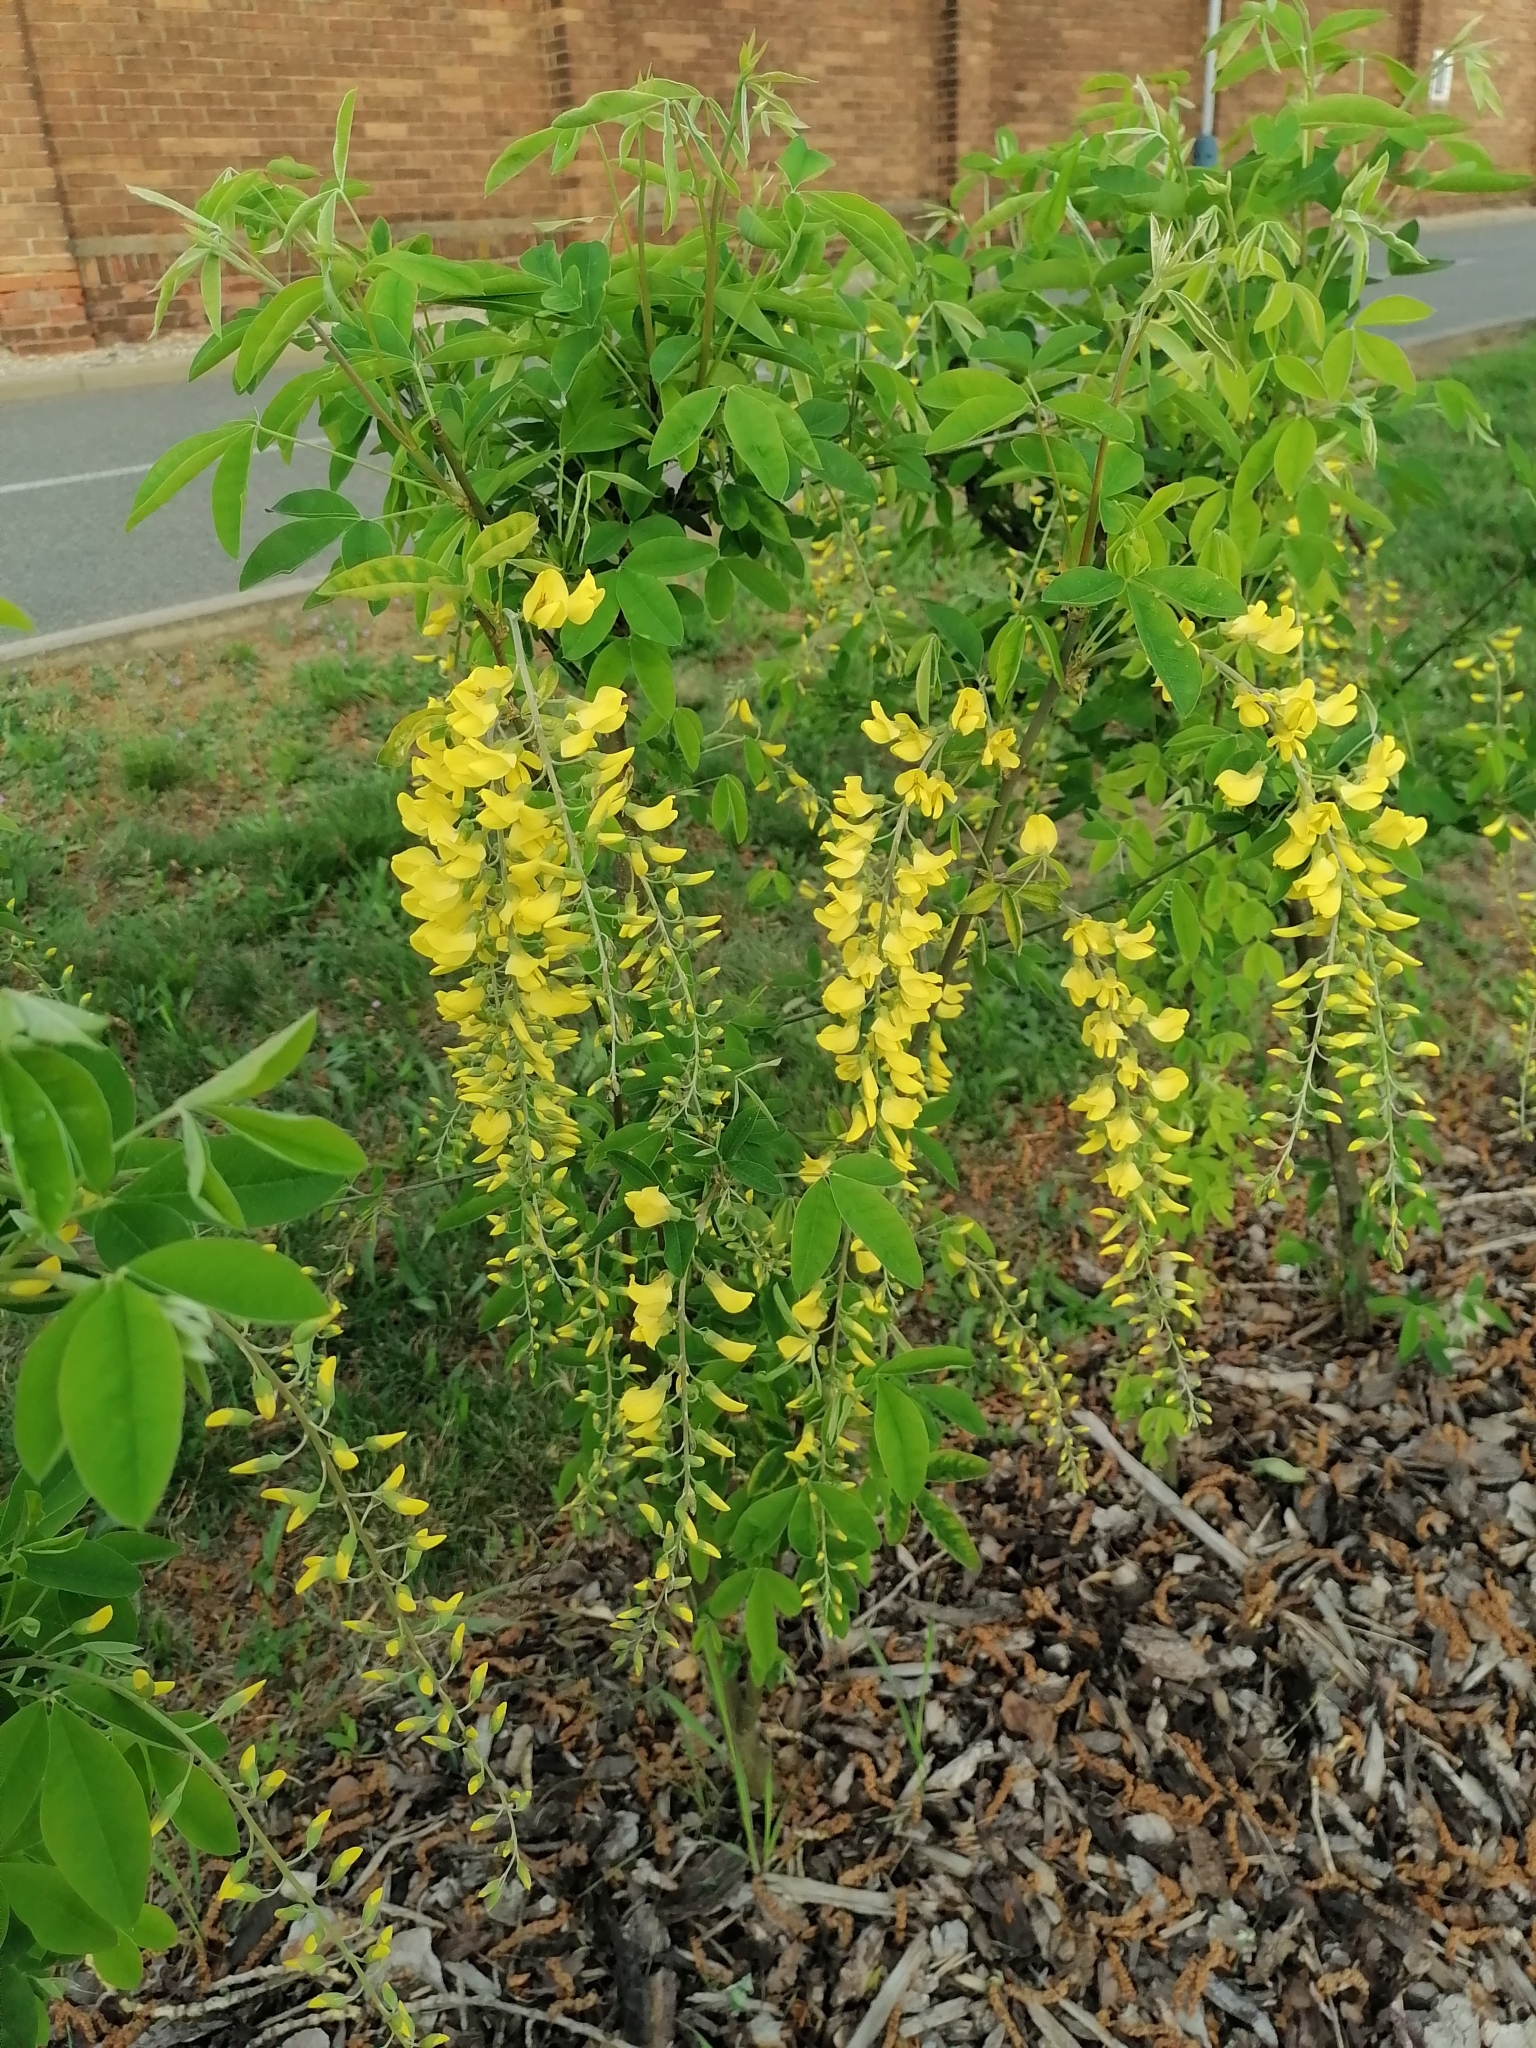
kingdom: Plantae
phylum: Tracheophyta
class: Magnoliopsida
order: Fabales
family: Fabaceae
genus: Laburnum
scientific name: Laburnum anagyroides
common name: Laburnum
